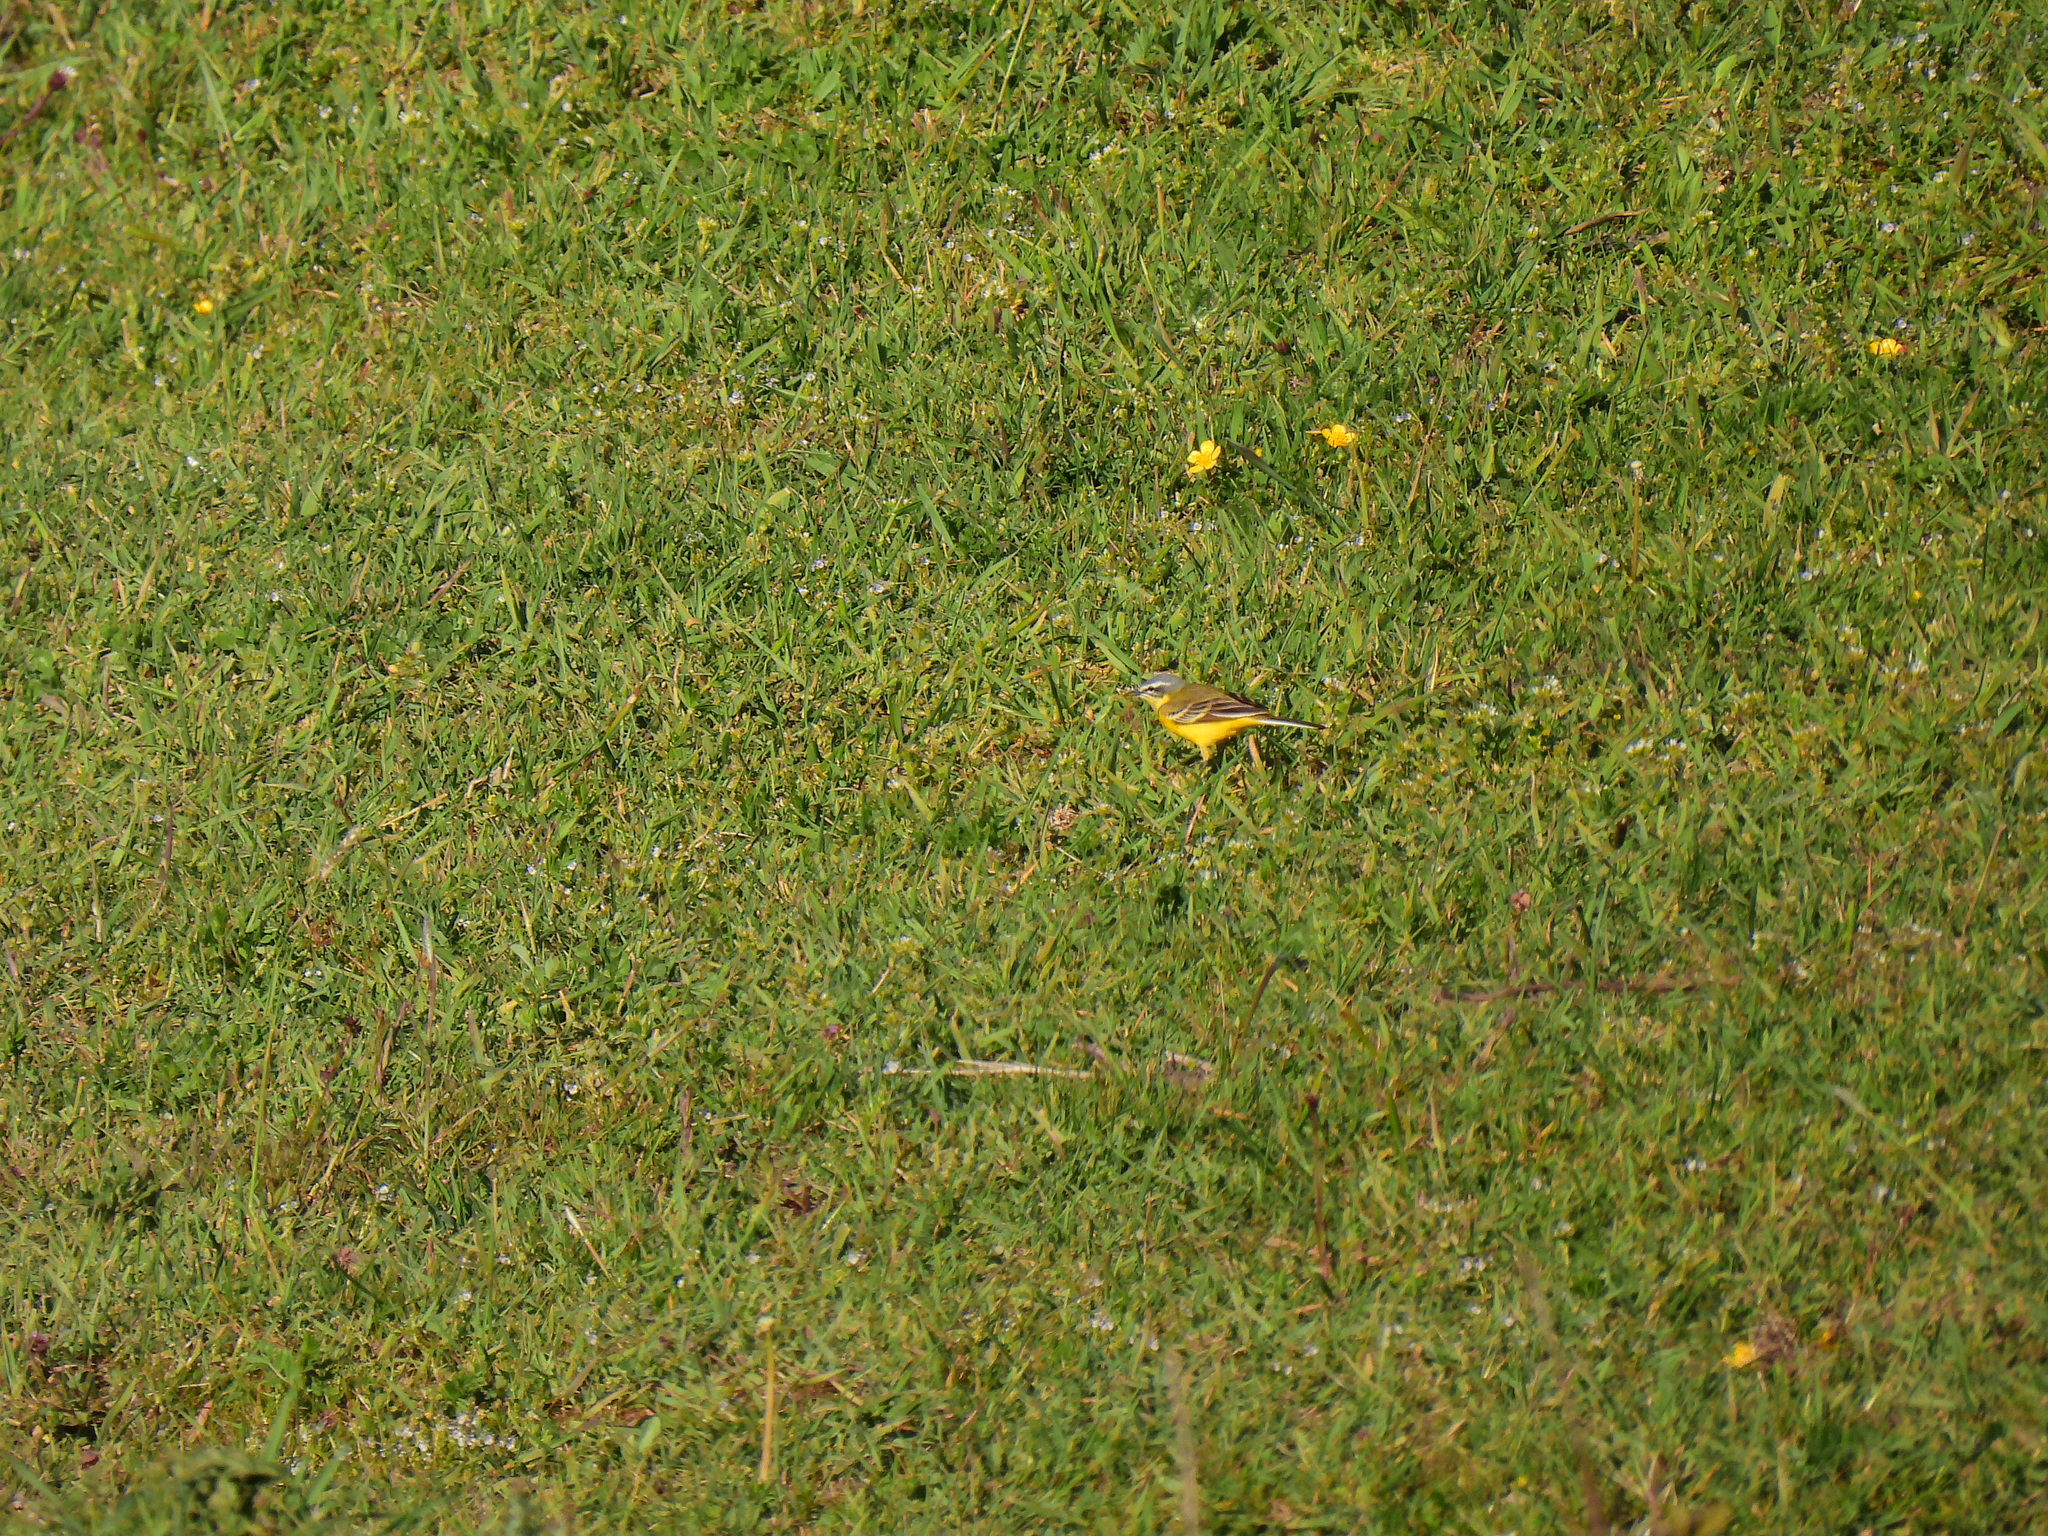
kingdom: Animalia
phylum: Chordata
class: Aves
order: Passeriformes
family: Motacillidae
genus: Motacilla
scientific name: Motacilla flava
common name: Western yellow wagtail
